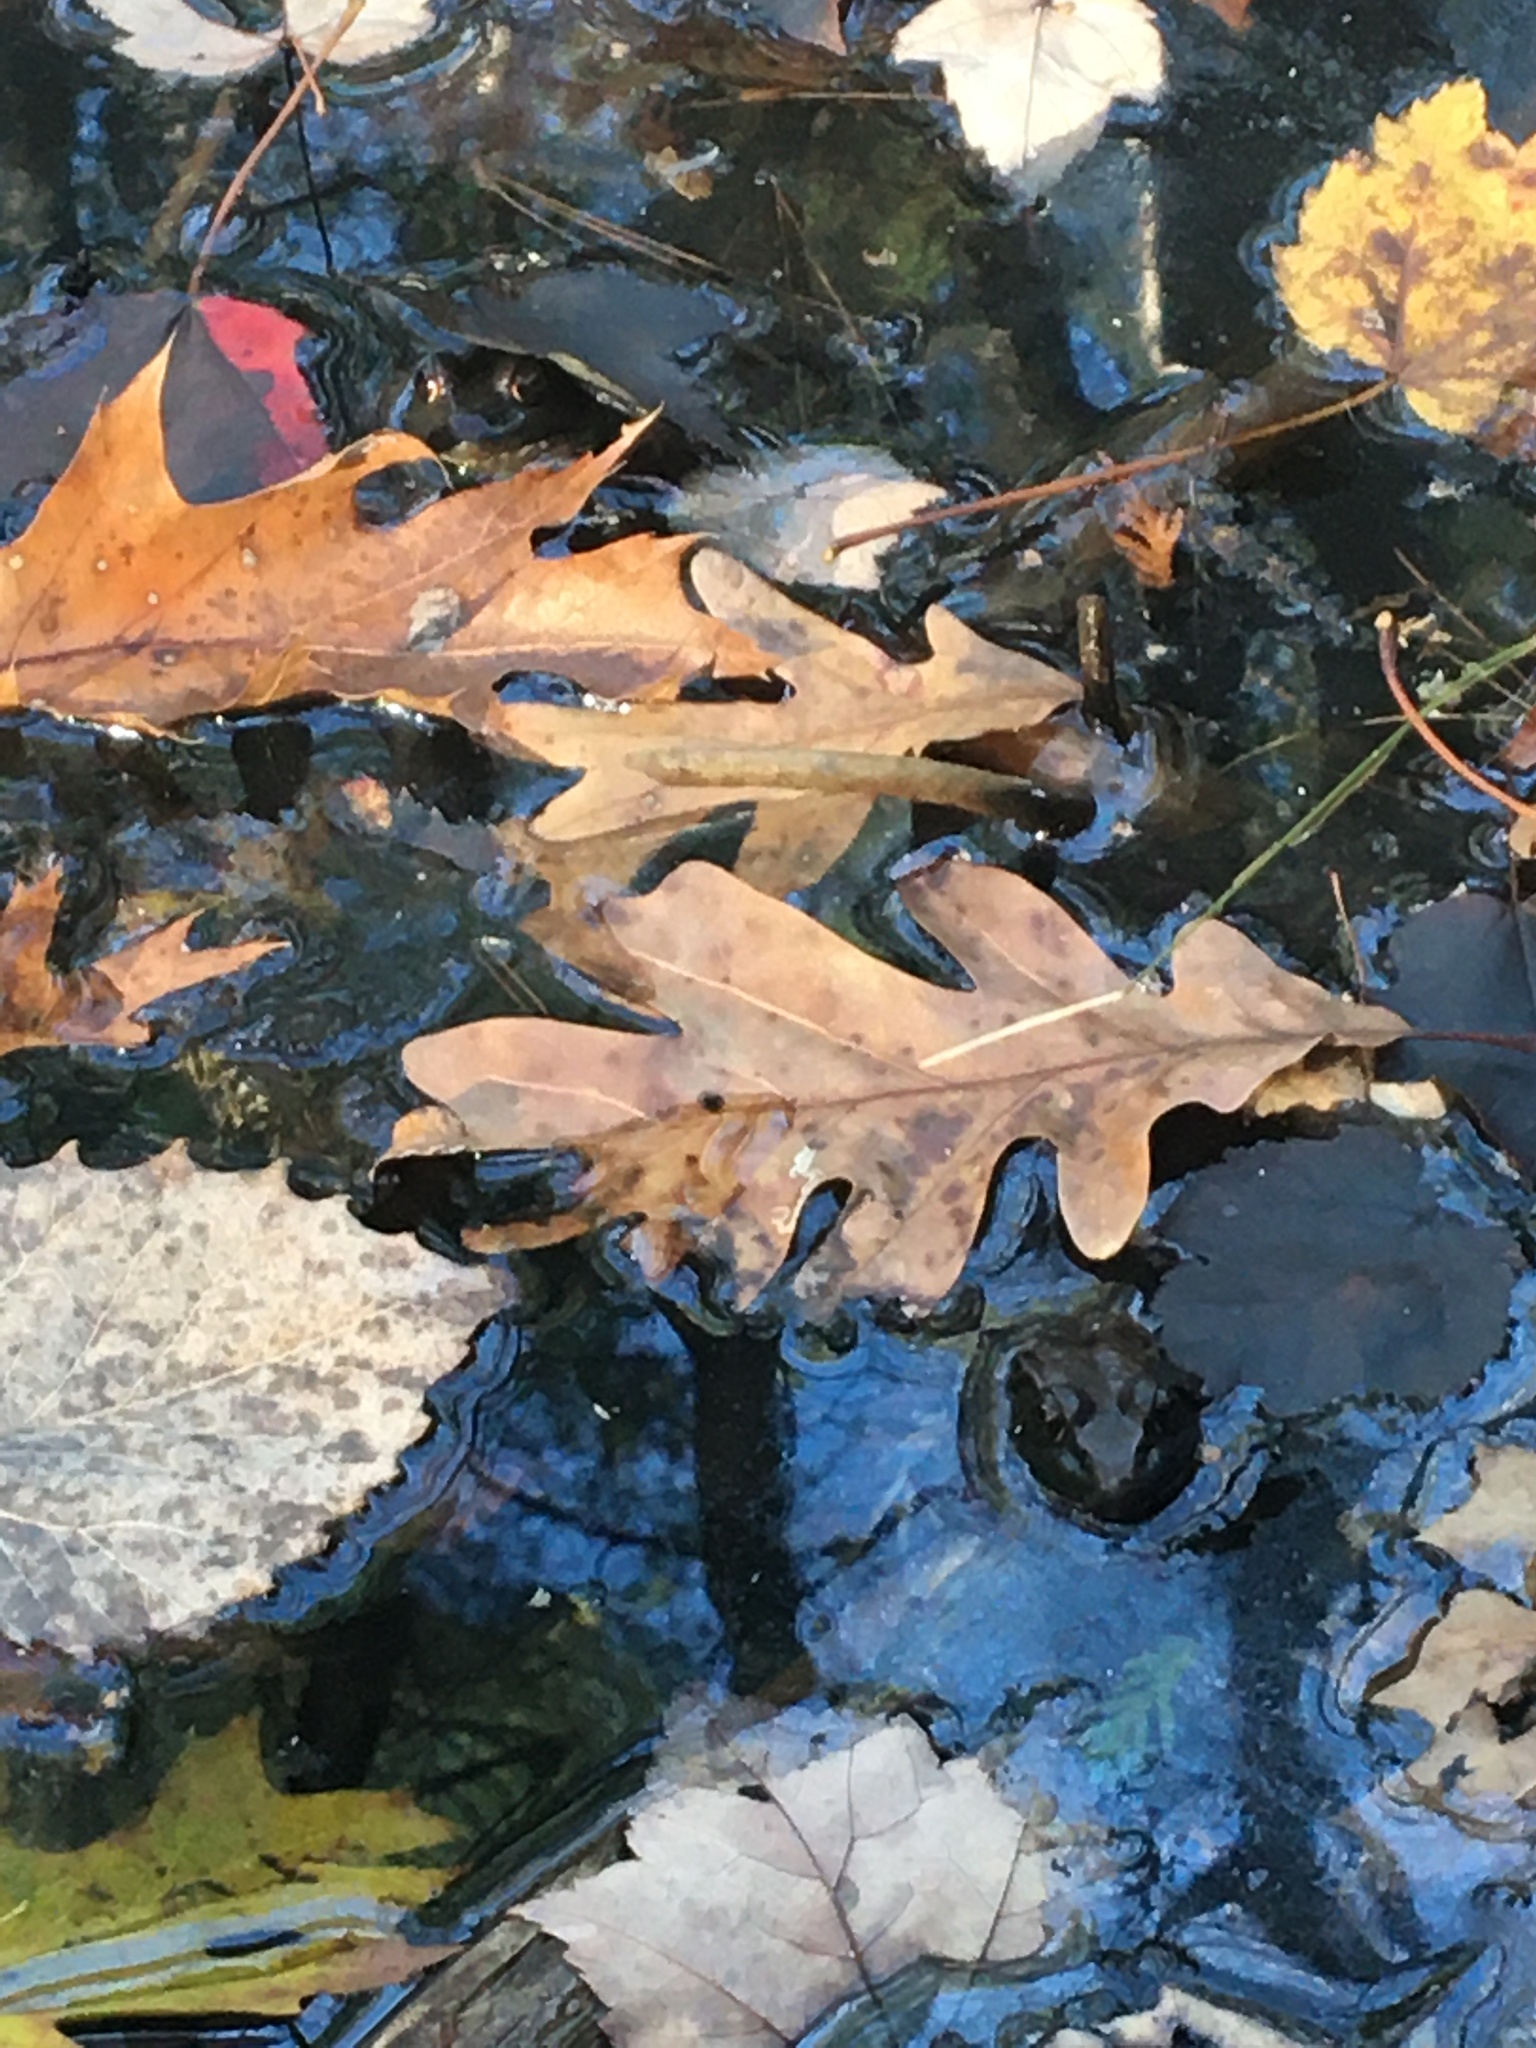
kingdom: Animalia
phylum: Chordata
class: Amphibia
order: Anura
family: Ranidae
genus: Lithobates
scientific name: Lithobates clamitans
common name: Green frog
